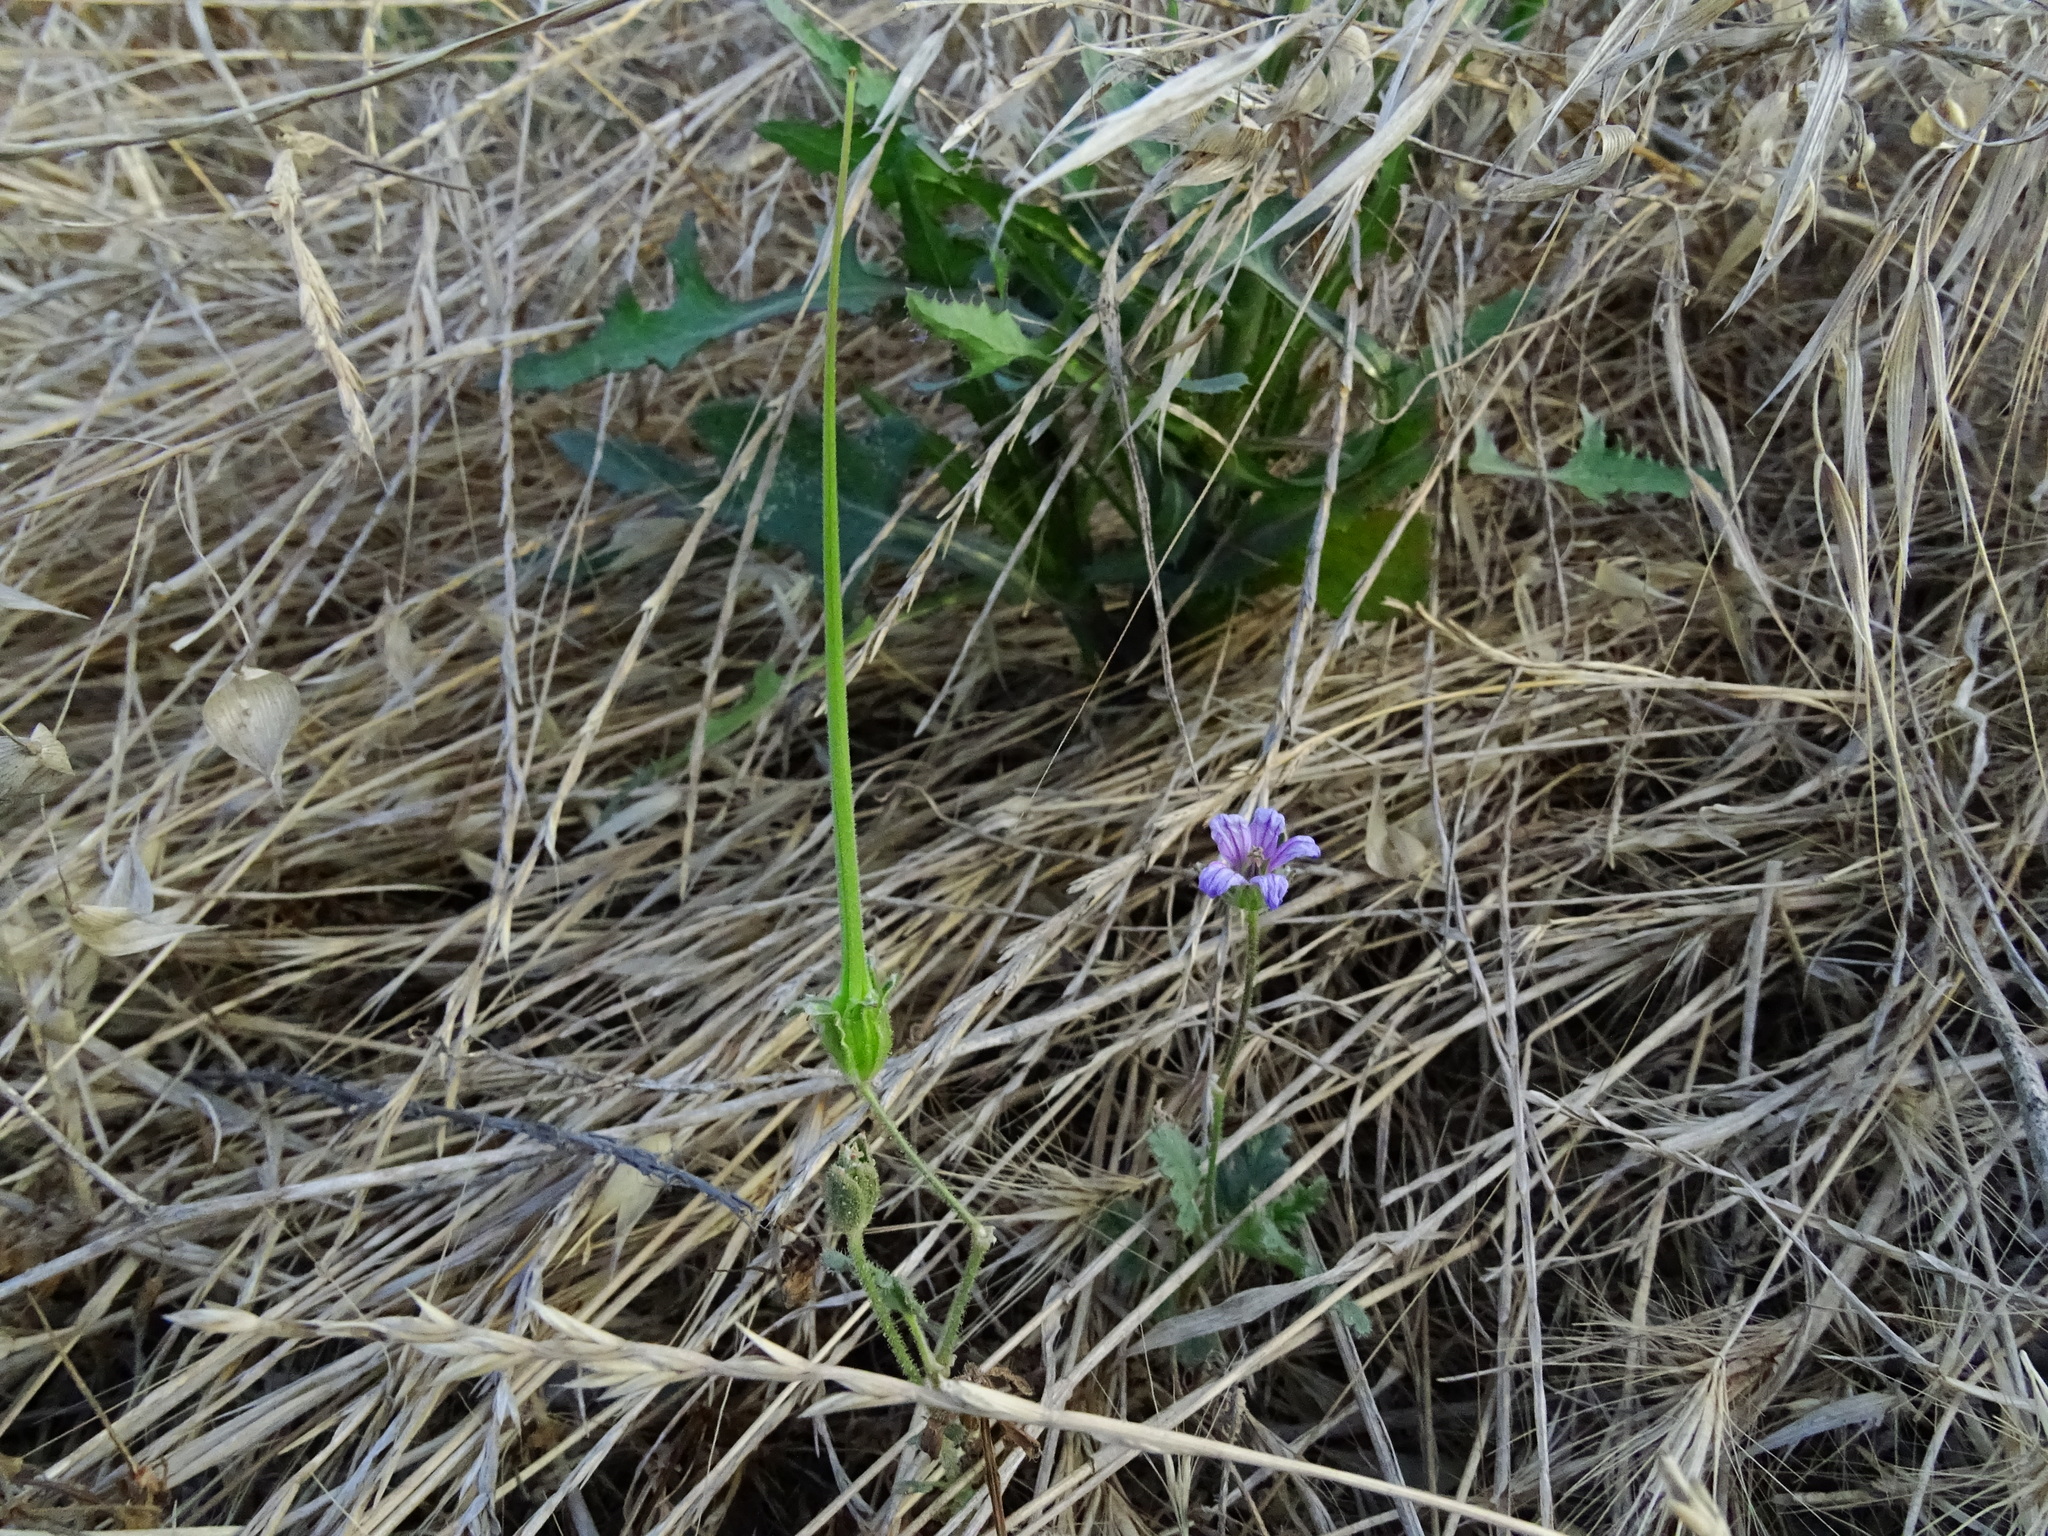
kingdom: Plantae
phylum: Tracheophyta
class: Magnoliopsida
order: Geraniales
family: Geraniaceae
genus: Erodium
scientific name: Erodium botrys
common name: Mediterranean stork's-bill
